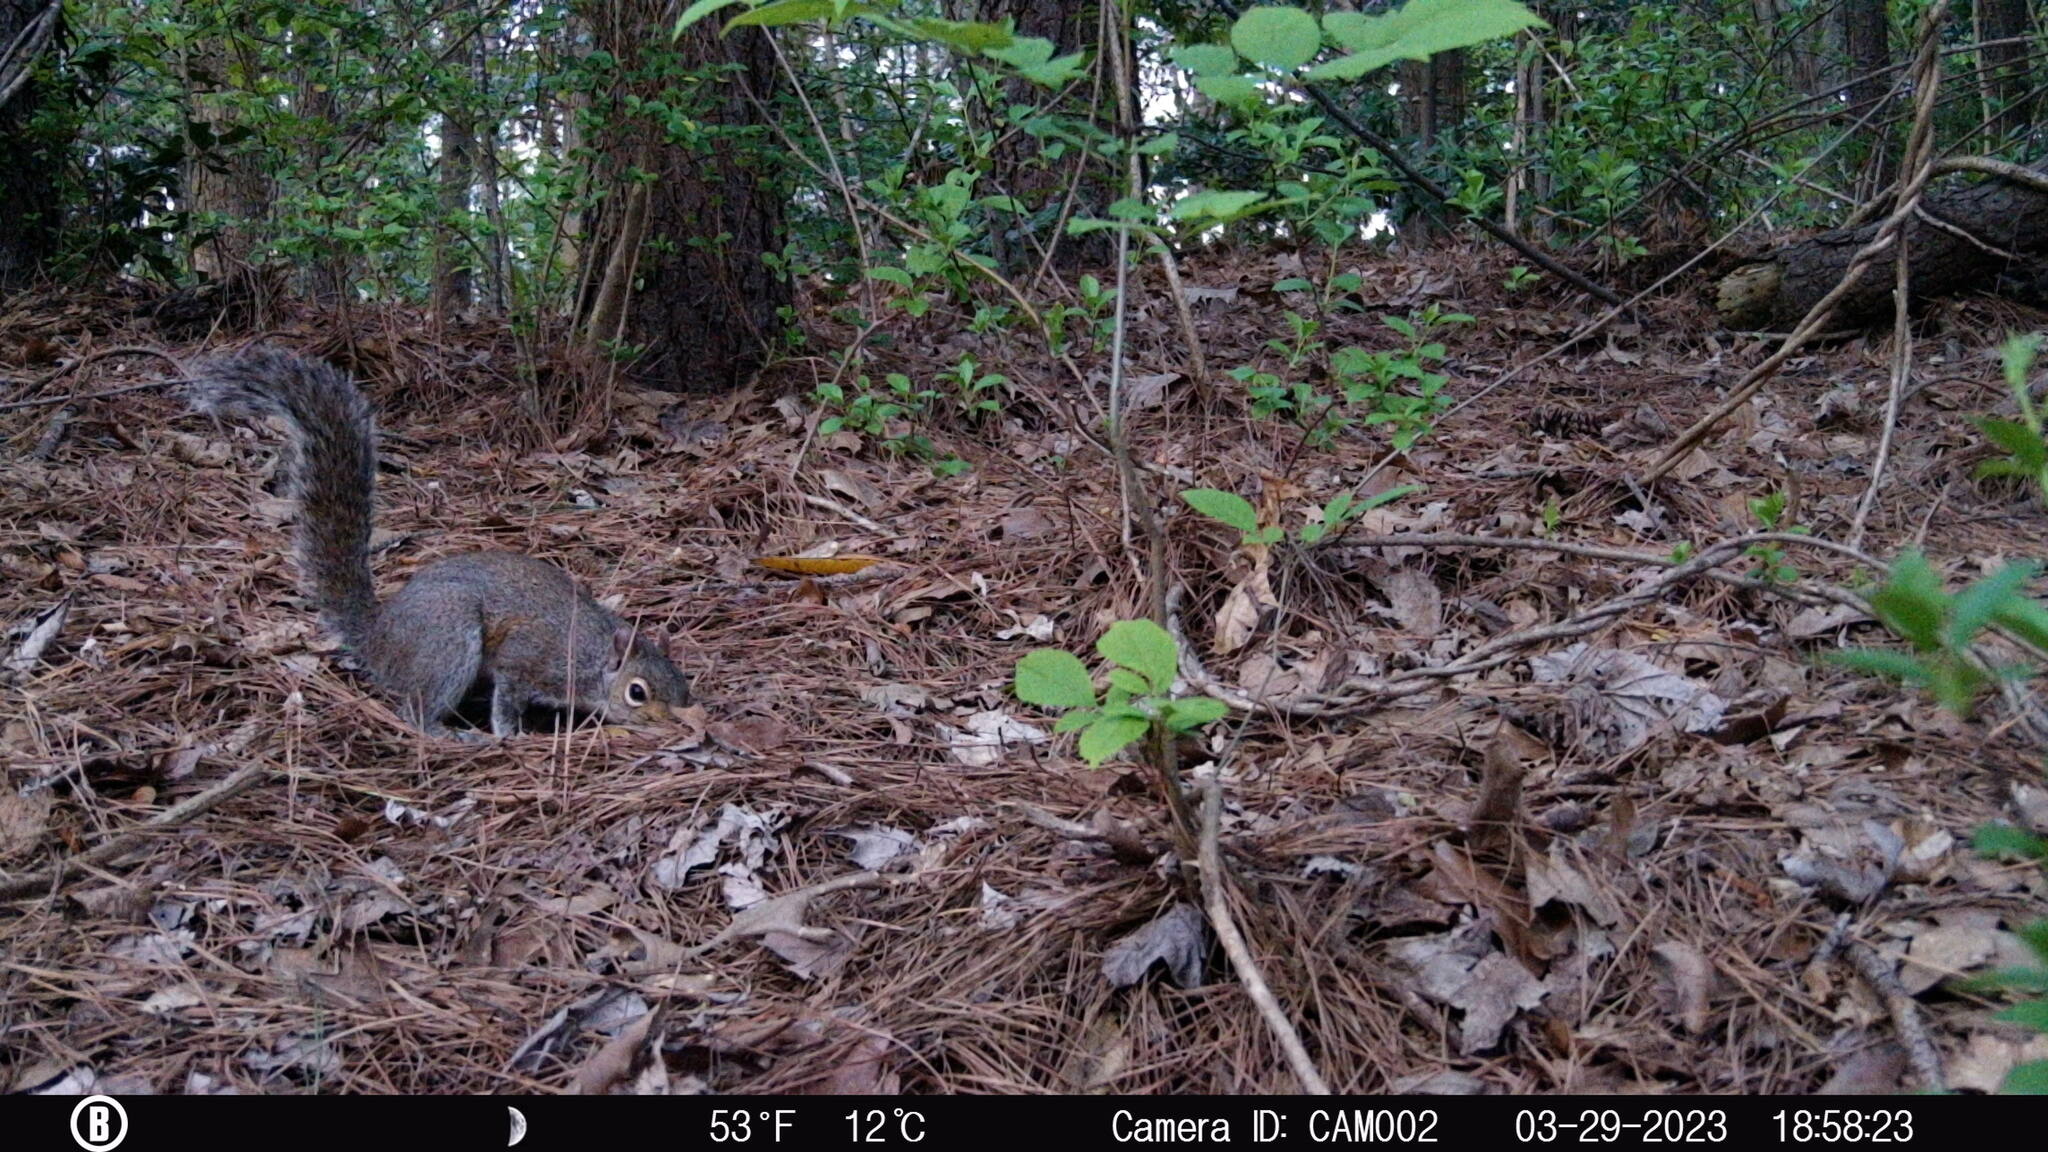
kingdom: Animalia
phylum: Chordata
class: Mammalia
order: Rodentia
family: Sciuridae
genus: Sciurus
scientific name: Sciurus carolinensis
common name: Eastern gray squirrel
